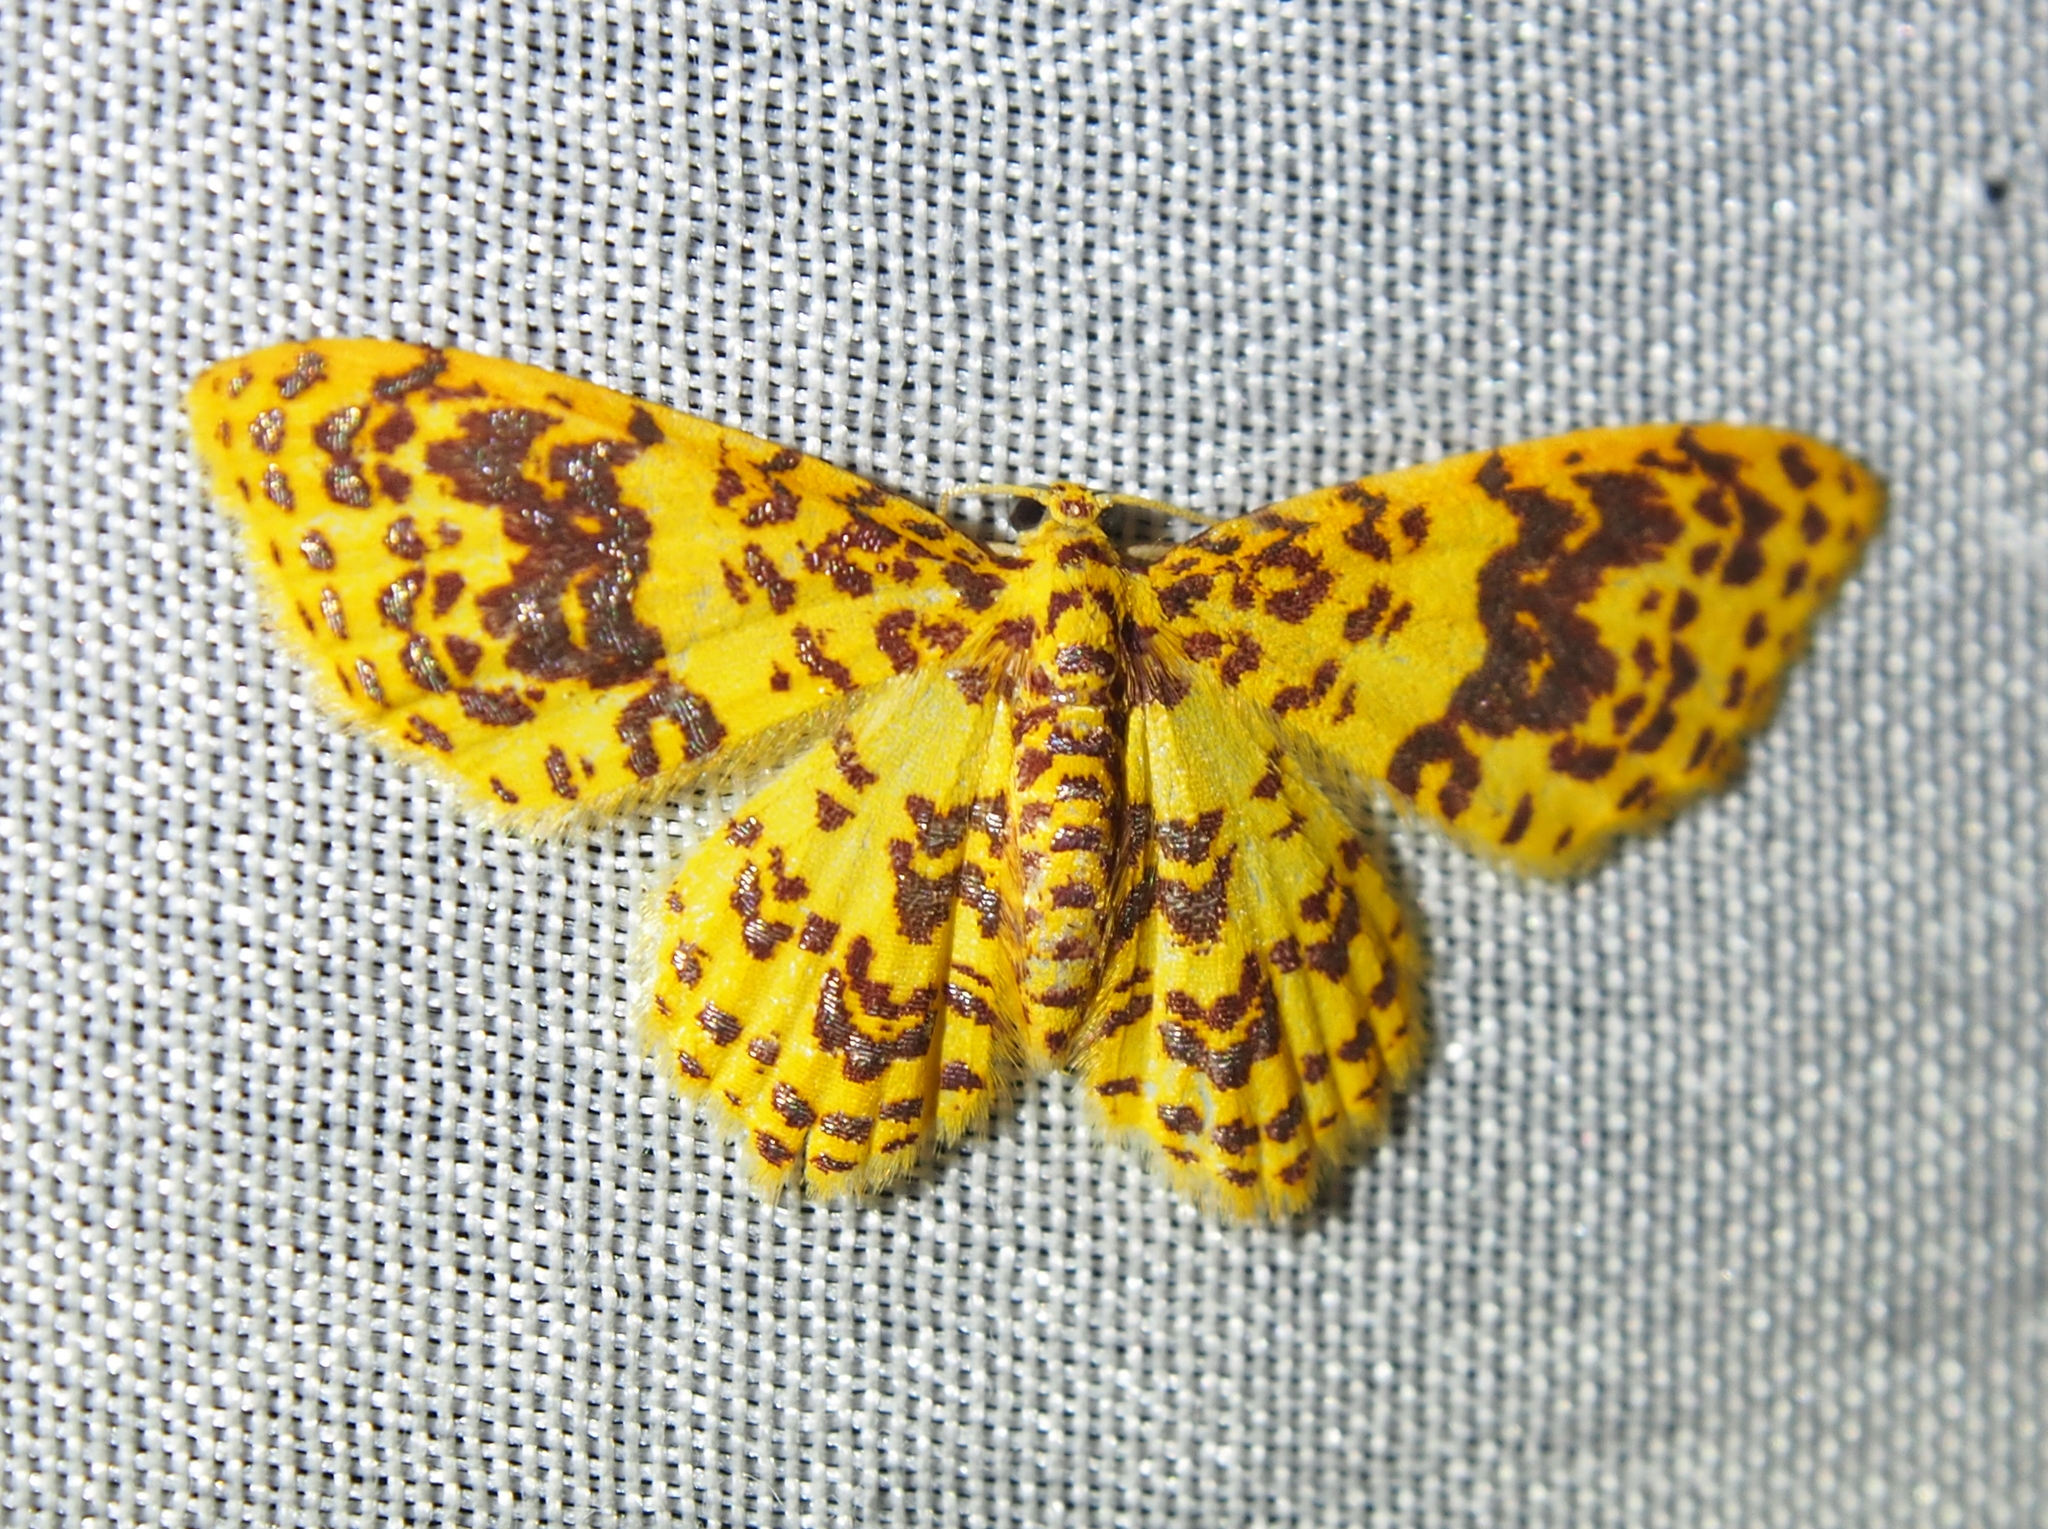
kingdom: Animalia
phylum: Arthropoda
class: Insecta
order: Lepidoptera
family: Geometridae
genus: Eois
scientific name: Eois margarita
